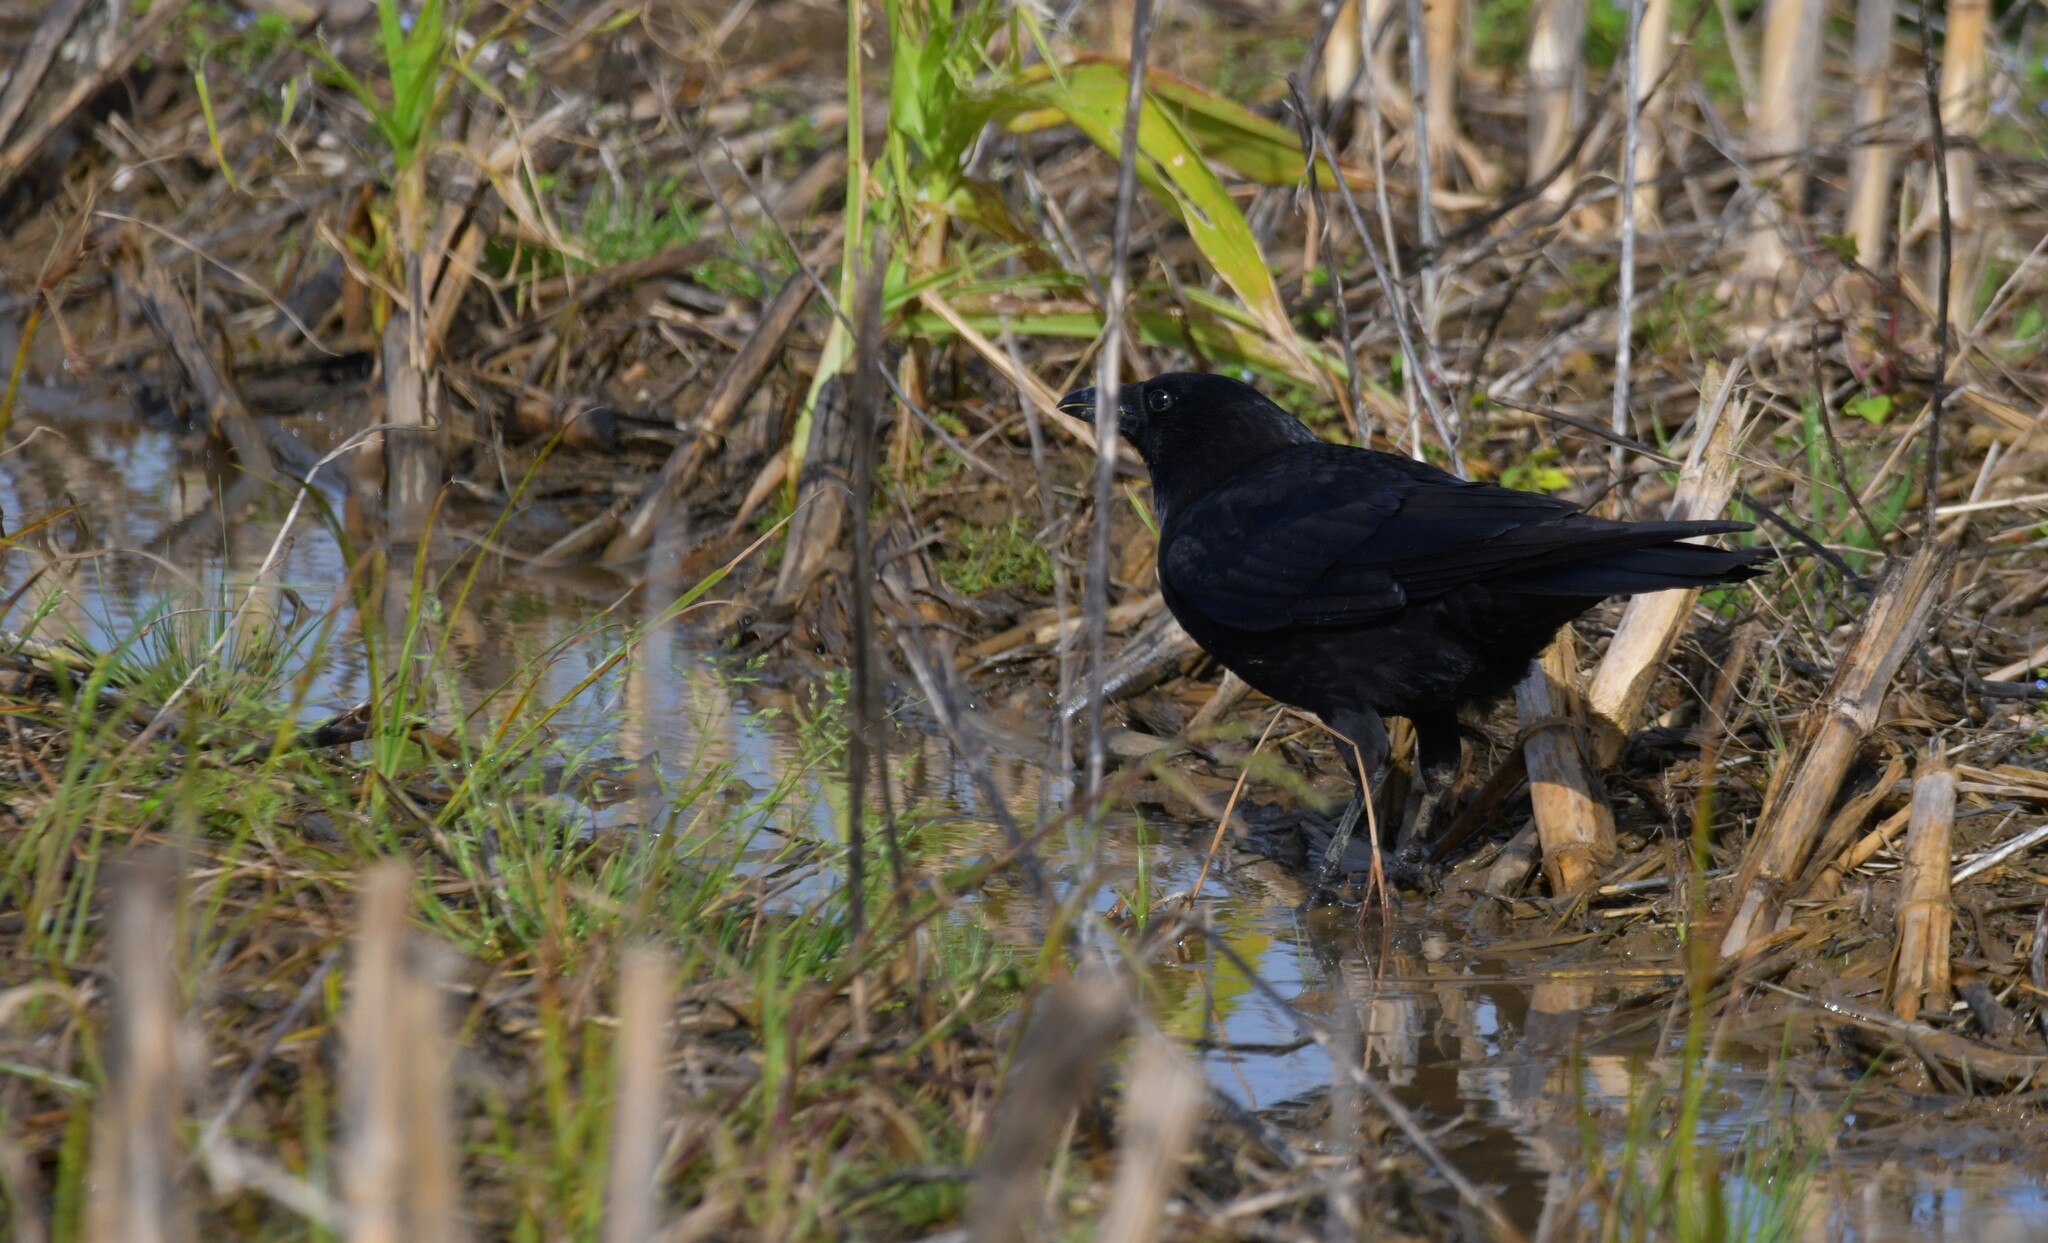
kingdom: Animalia
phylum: Chordata
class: Aves
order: Passeriformes
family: Corvidae
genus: Corvus
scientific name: Corvus corone
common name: Carrion crow
